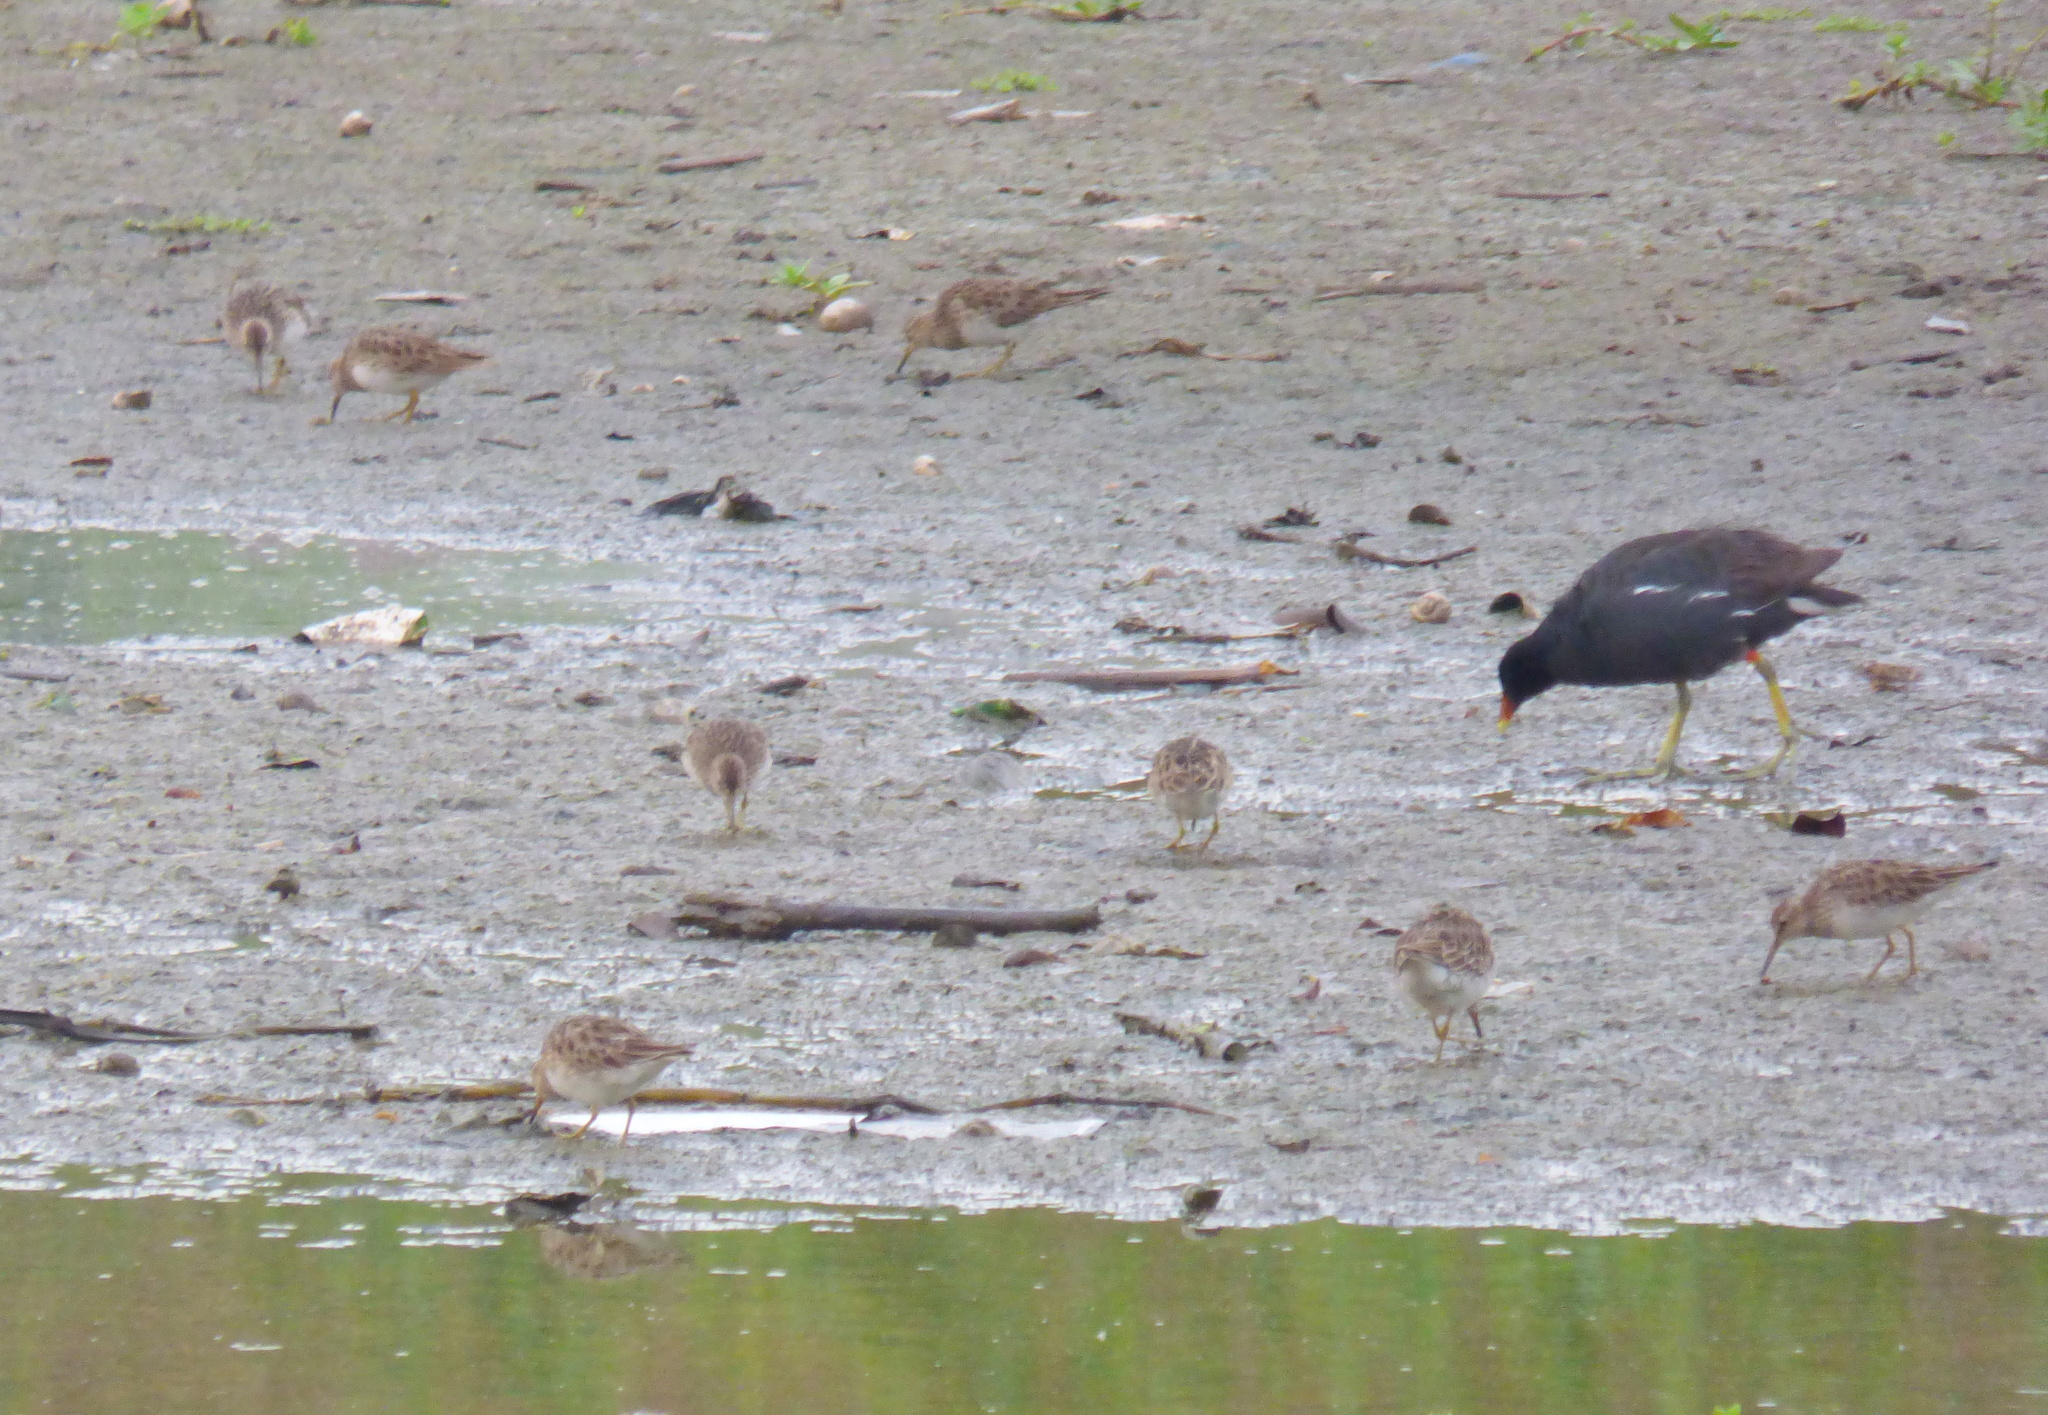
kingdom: Animalia
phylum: Chordata
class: Aves
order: Charadriiformes
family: Scolopacidae
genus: Calidris
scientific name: Calidris melanotos
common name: Pectoral sandpiper
